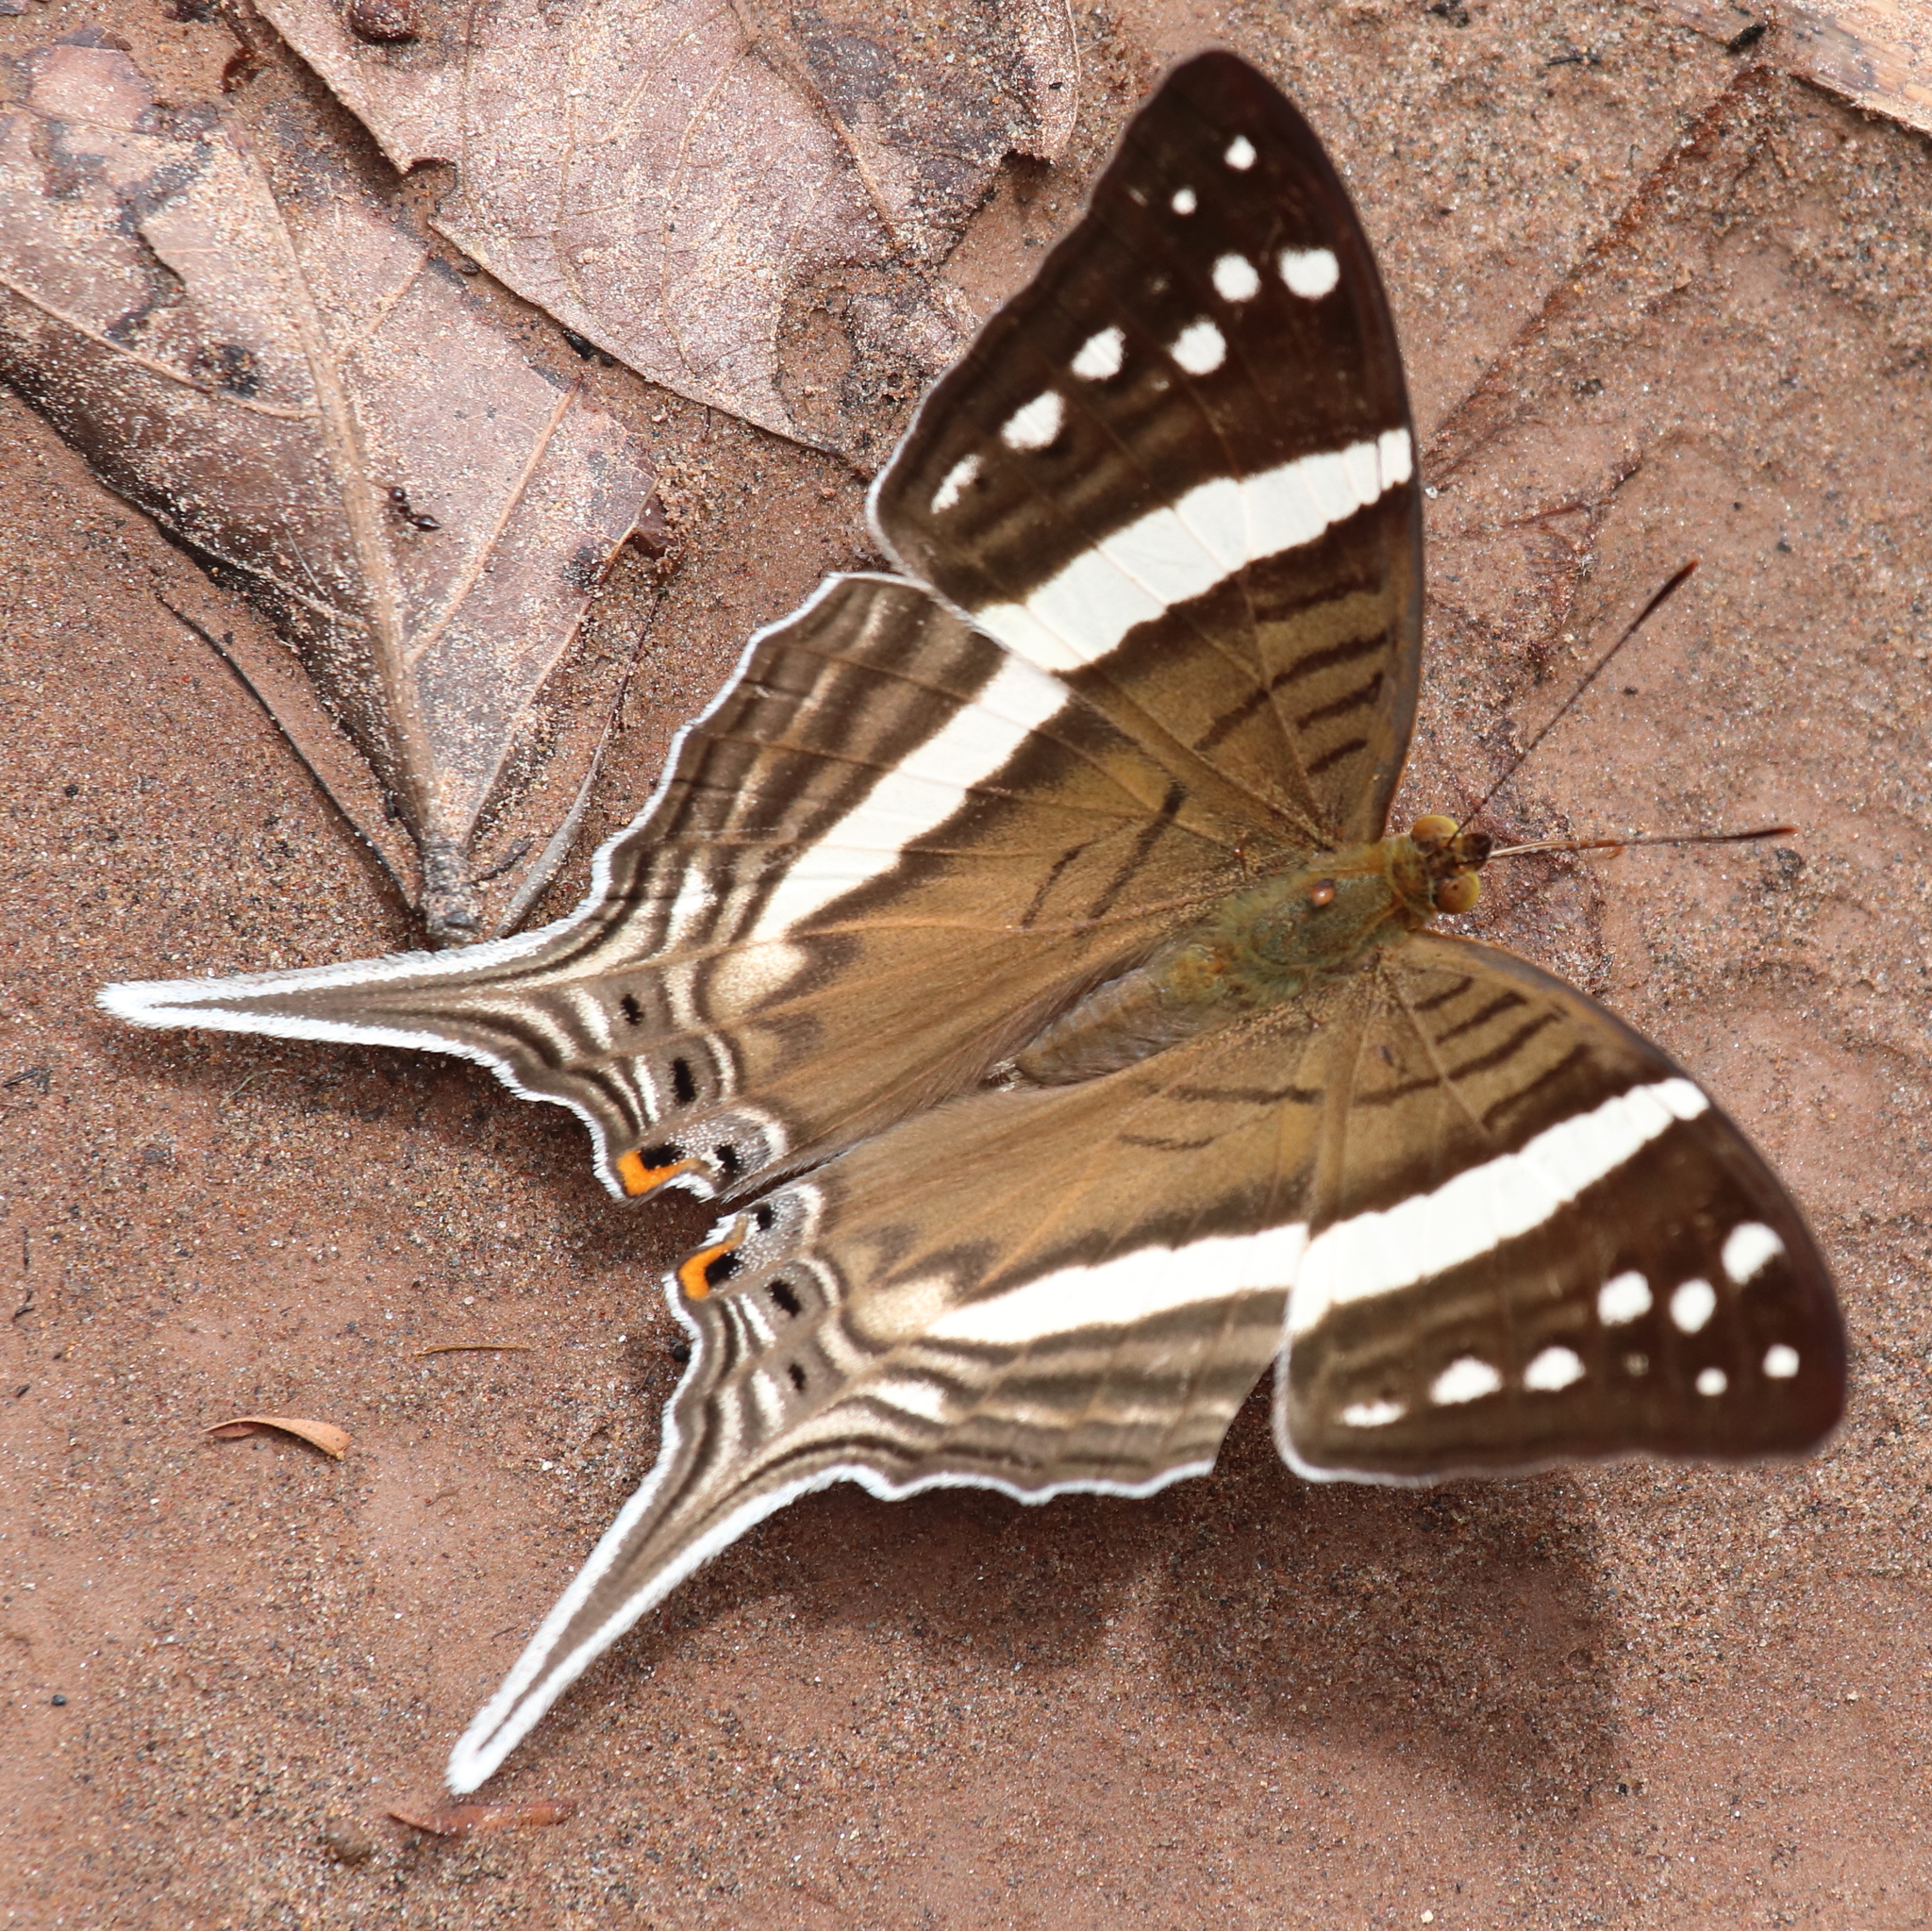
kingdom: Animalia
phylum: Arthropoda
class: Insecta
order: Lepidoptera
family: Nymphalidae
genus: Marpesia
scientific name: Marpesia crethon
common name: Crethon daggerwing
